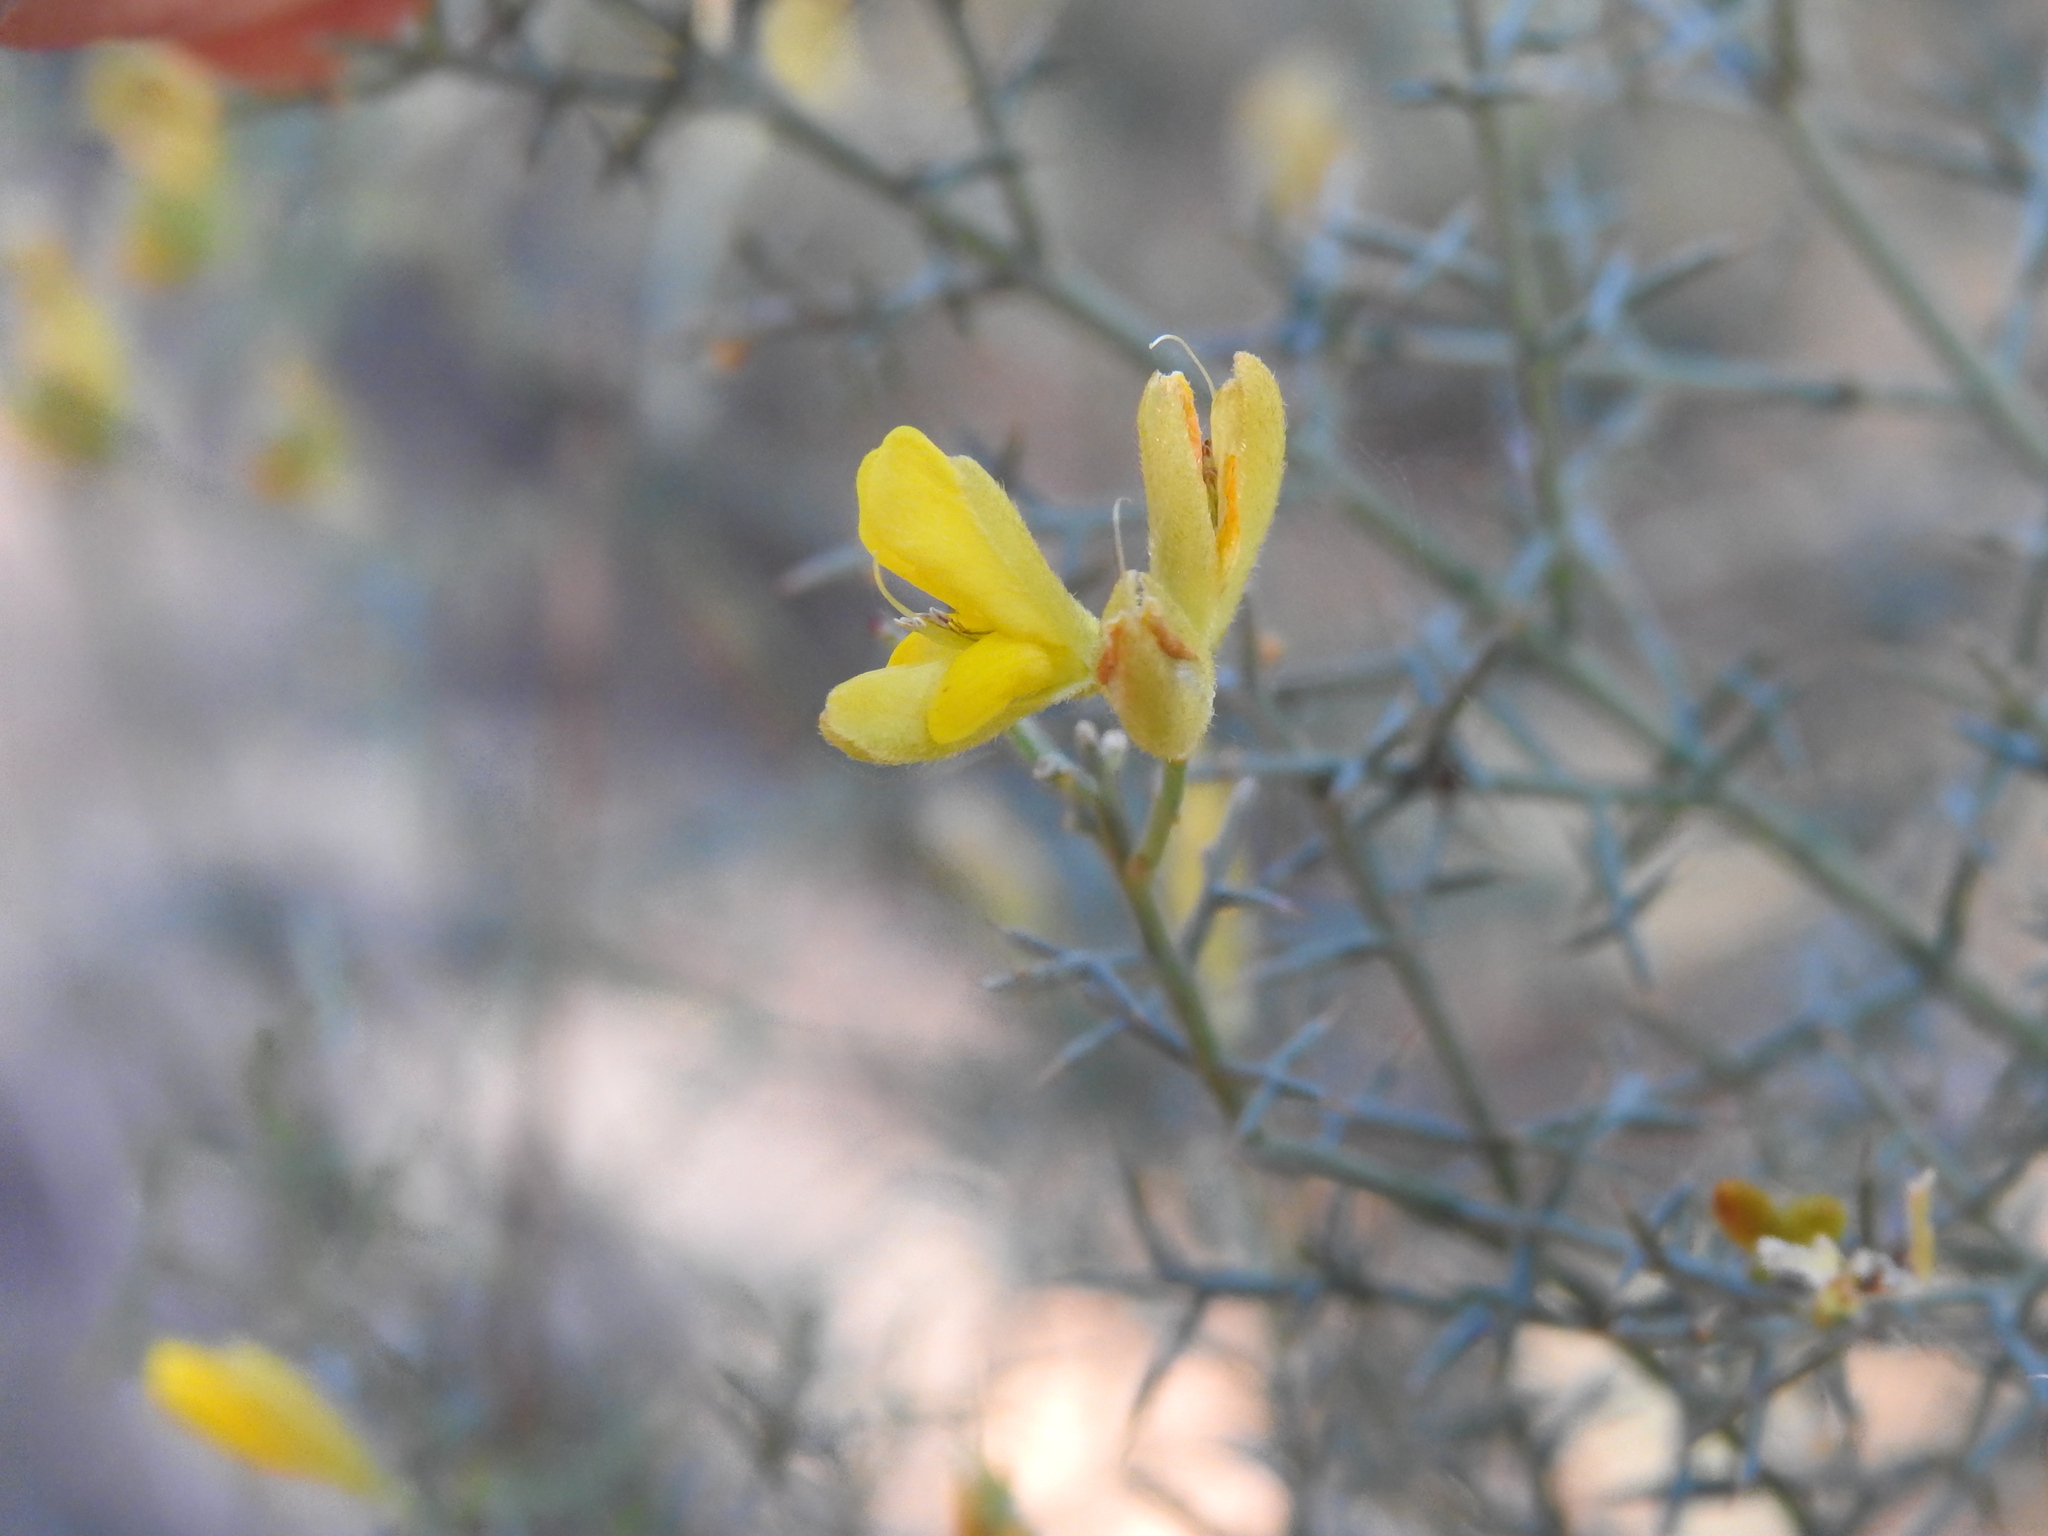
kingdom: Plantae
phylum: Tracheophyta
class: Magnoliopsida
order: Fabales
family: Fabaceae
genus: Stauracanthus
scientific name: Stauracanthus genistoides
